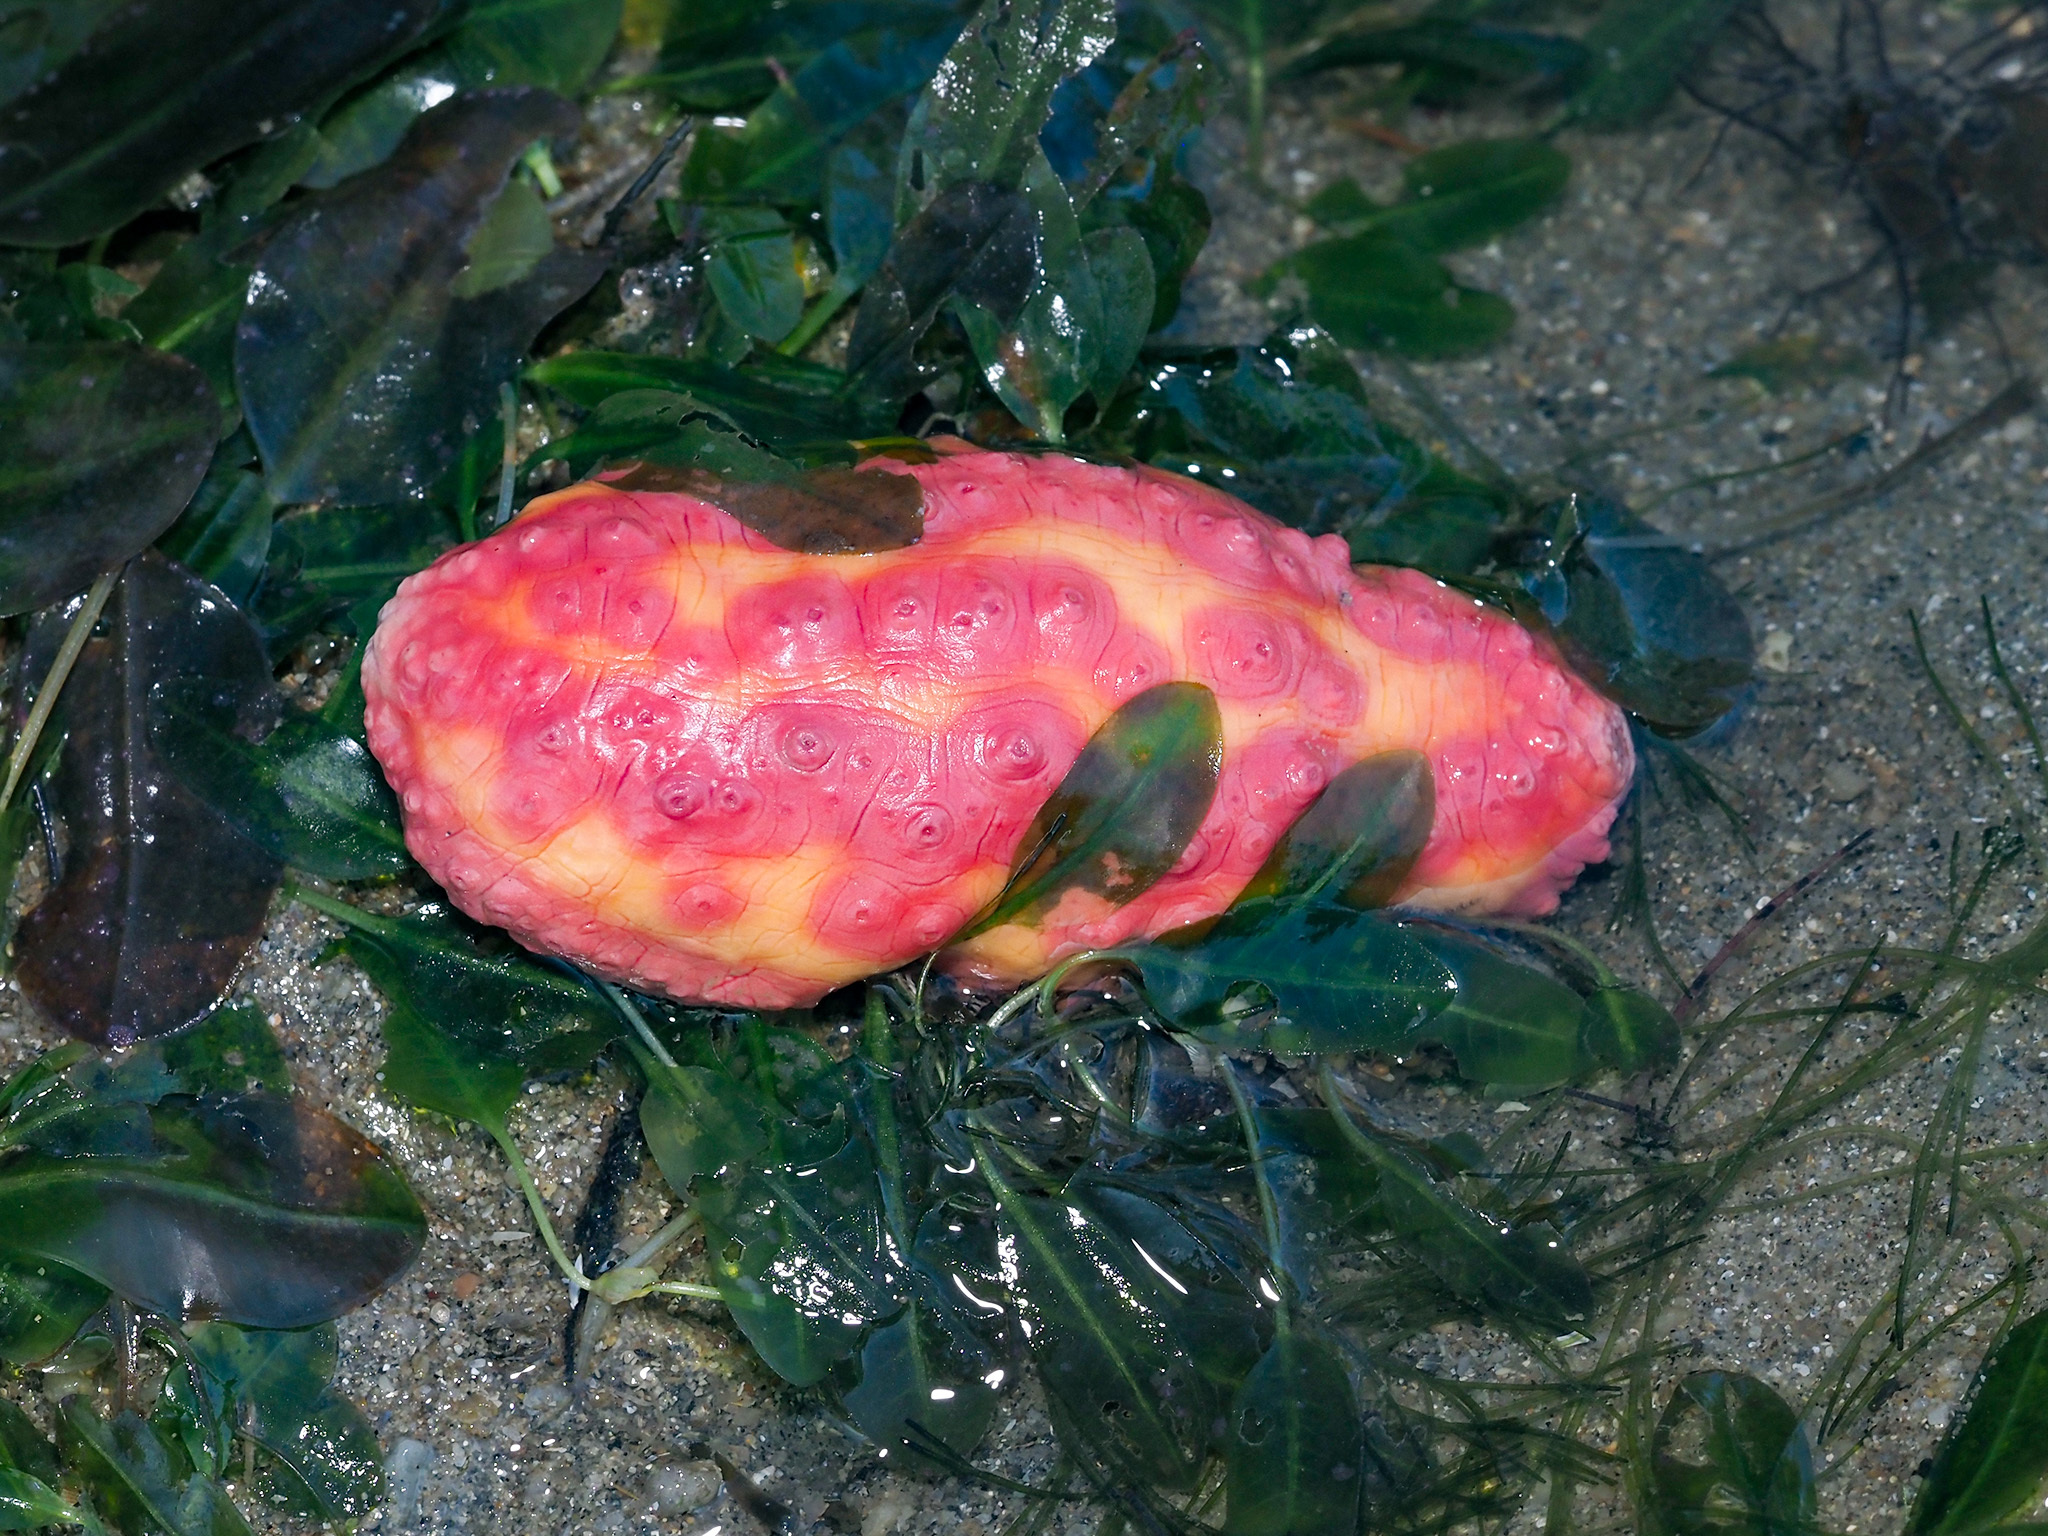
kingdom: Animalia
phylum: Echinodermata
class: Holothuroidea
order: Dendrochirotida
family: Cucumariidae
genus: Cercodemas
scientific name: Cercodemas anceps
